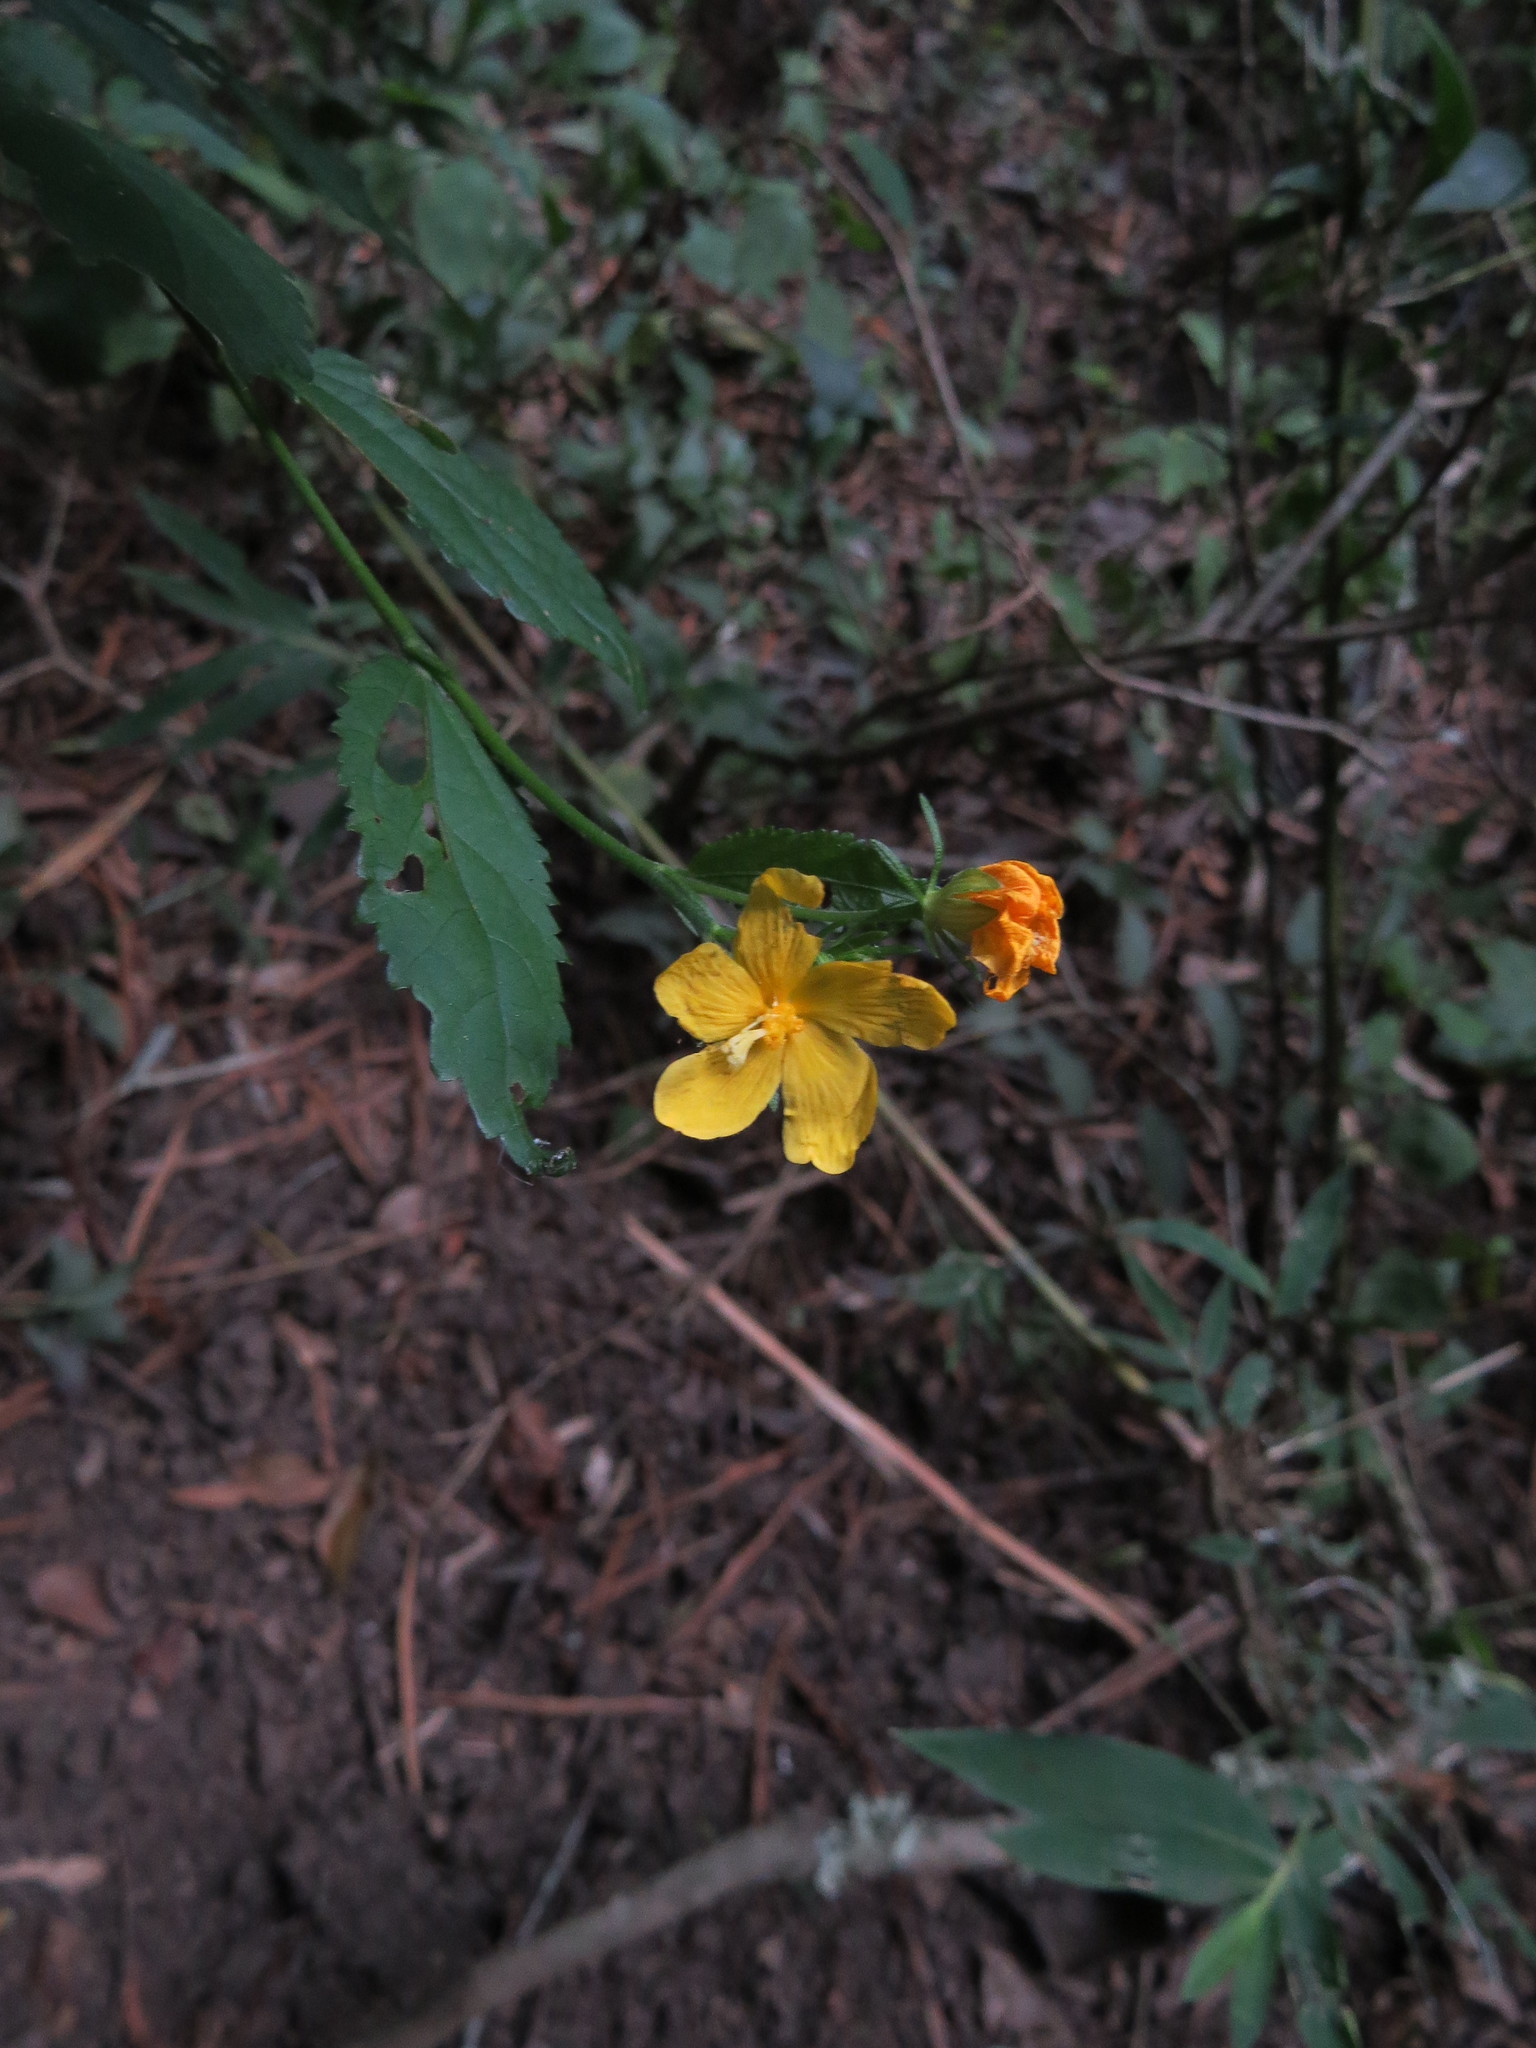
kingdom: Plantae
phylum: Tracheophyta
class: Magnoliopsida
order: Malvales
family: Malvaceae
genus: Pavonia
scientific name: Pavonia sepium
